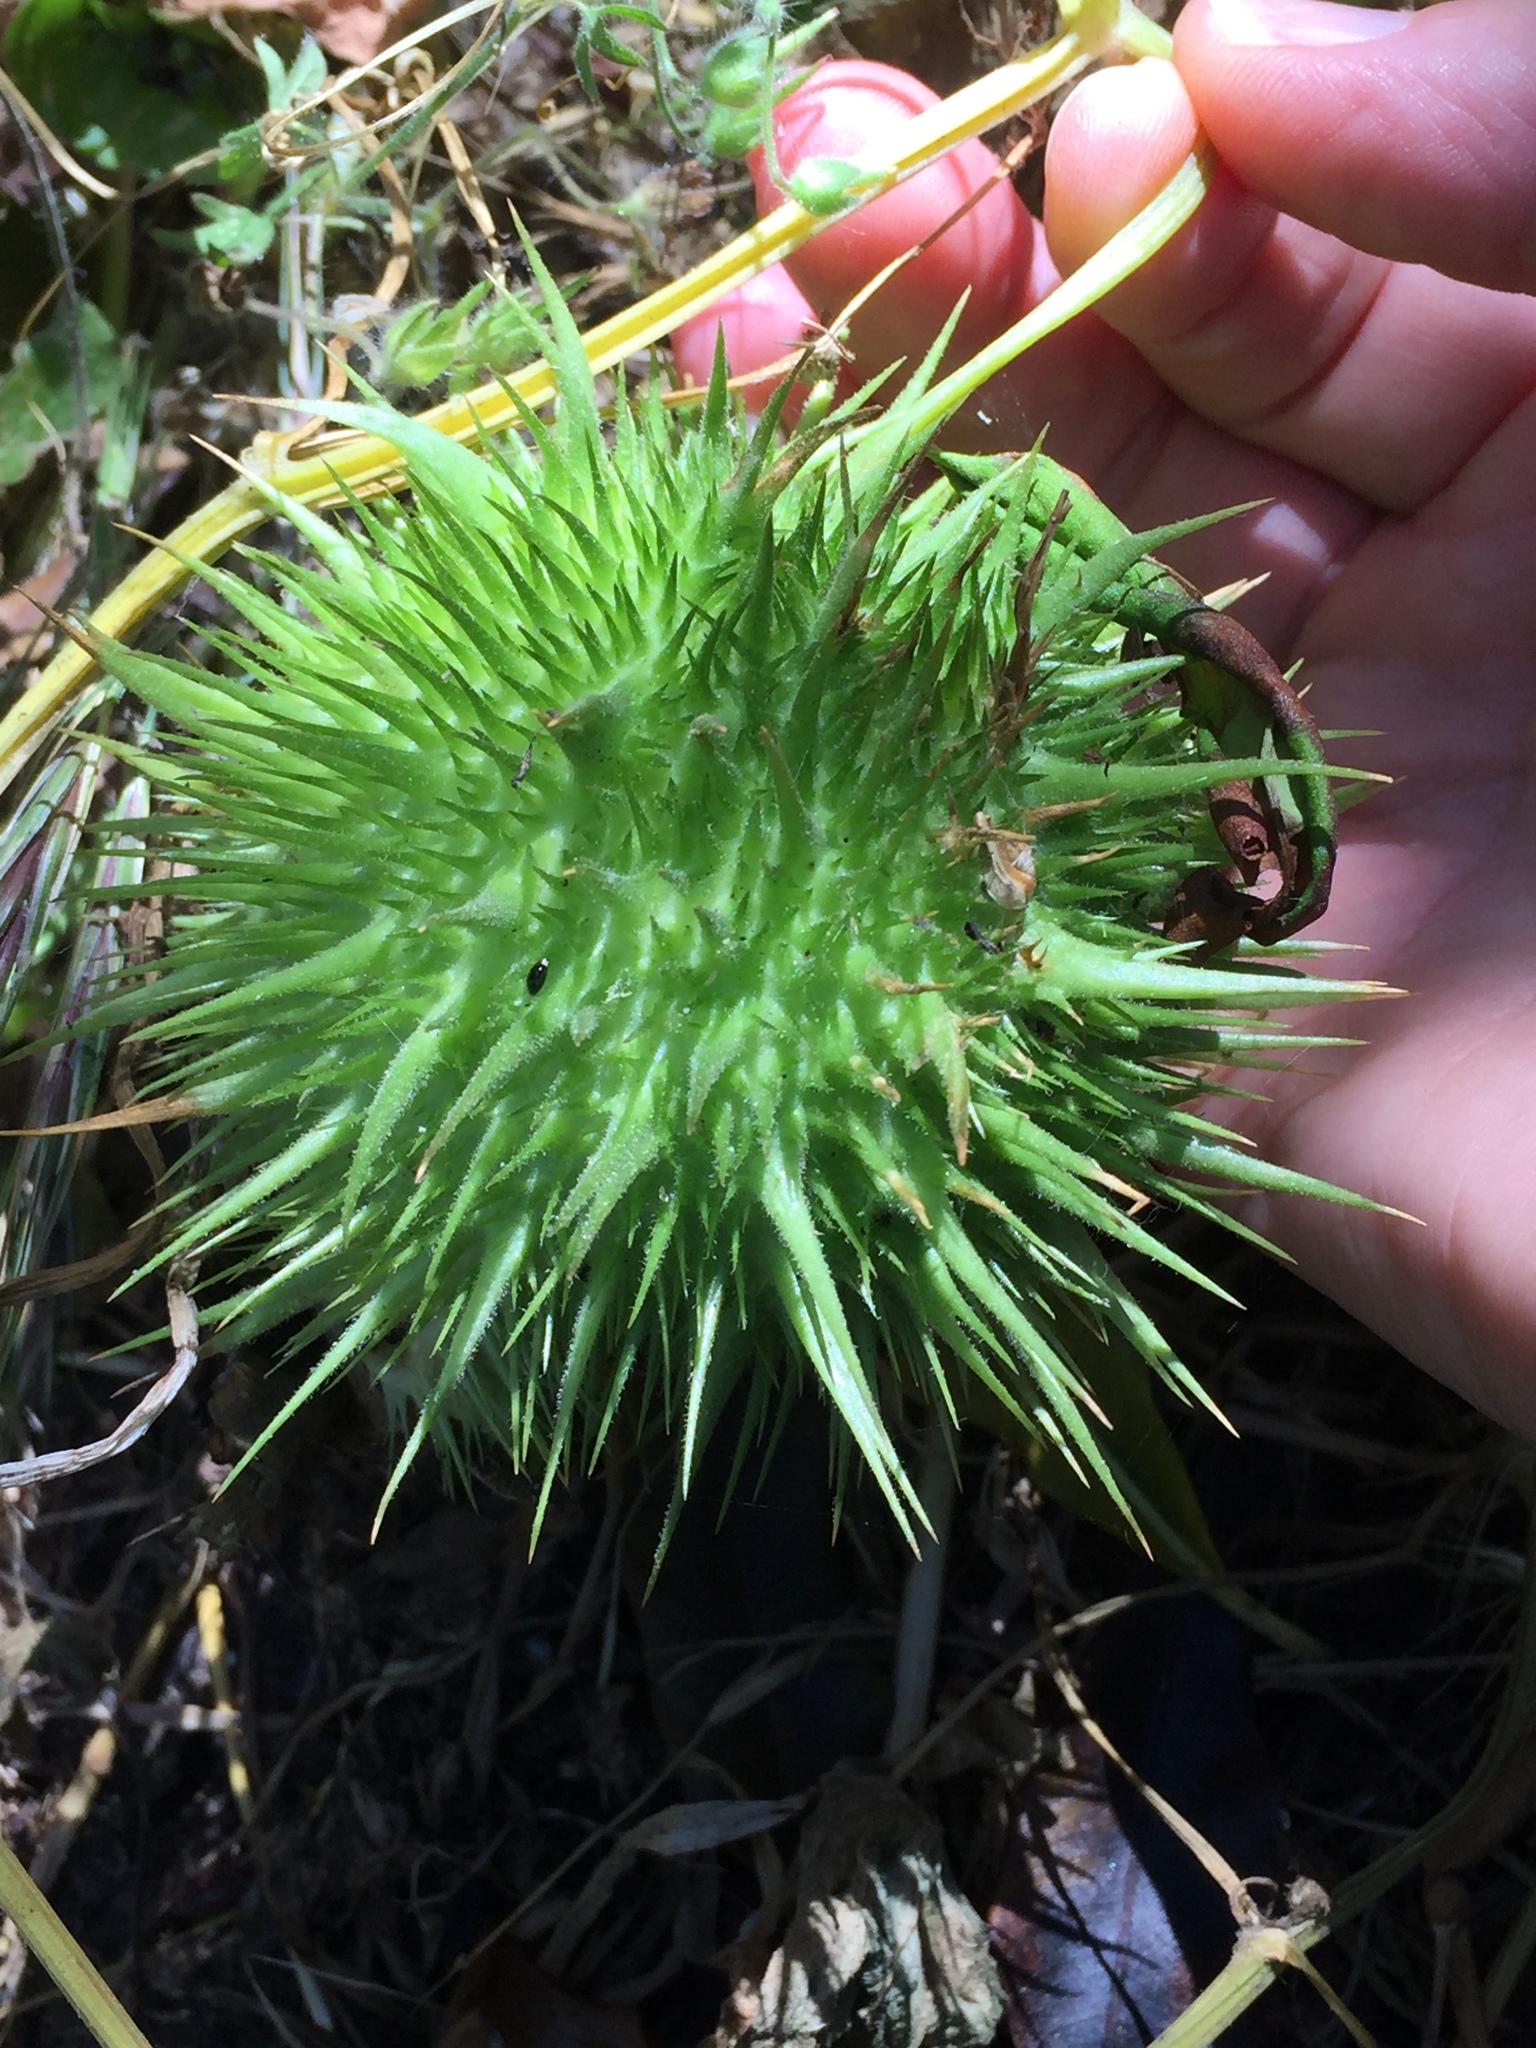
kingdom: Plantae
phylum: Tracheophyta
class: Magnoliopsida
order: Cucurbitales
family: Cucurbitaceae
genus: Marah
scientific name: Marah fabacea
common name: California manroot
